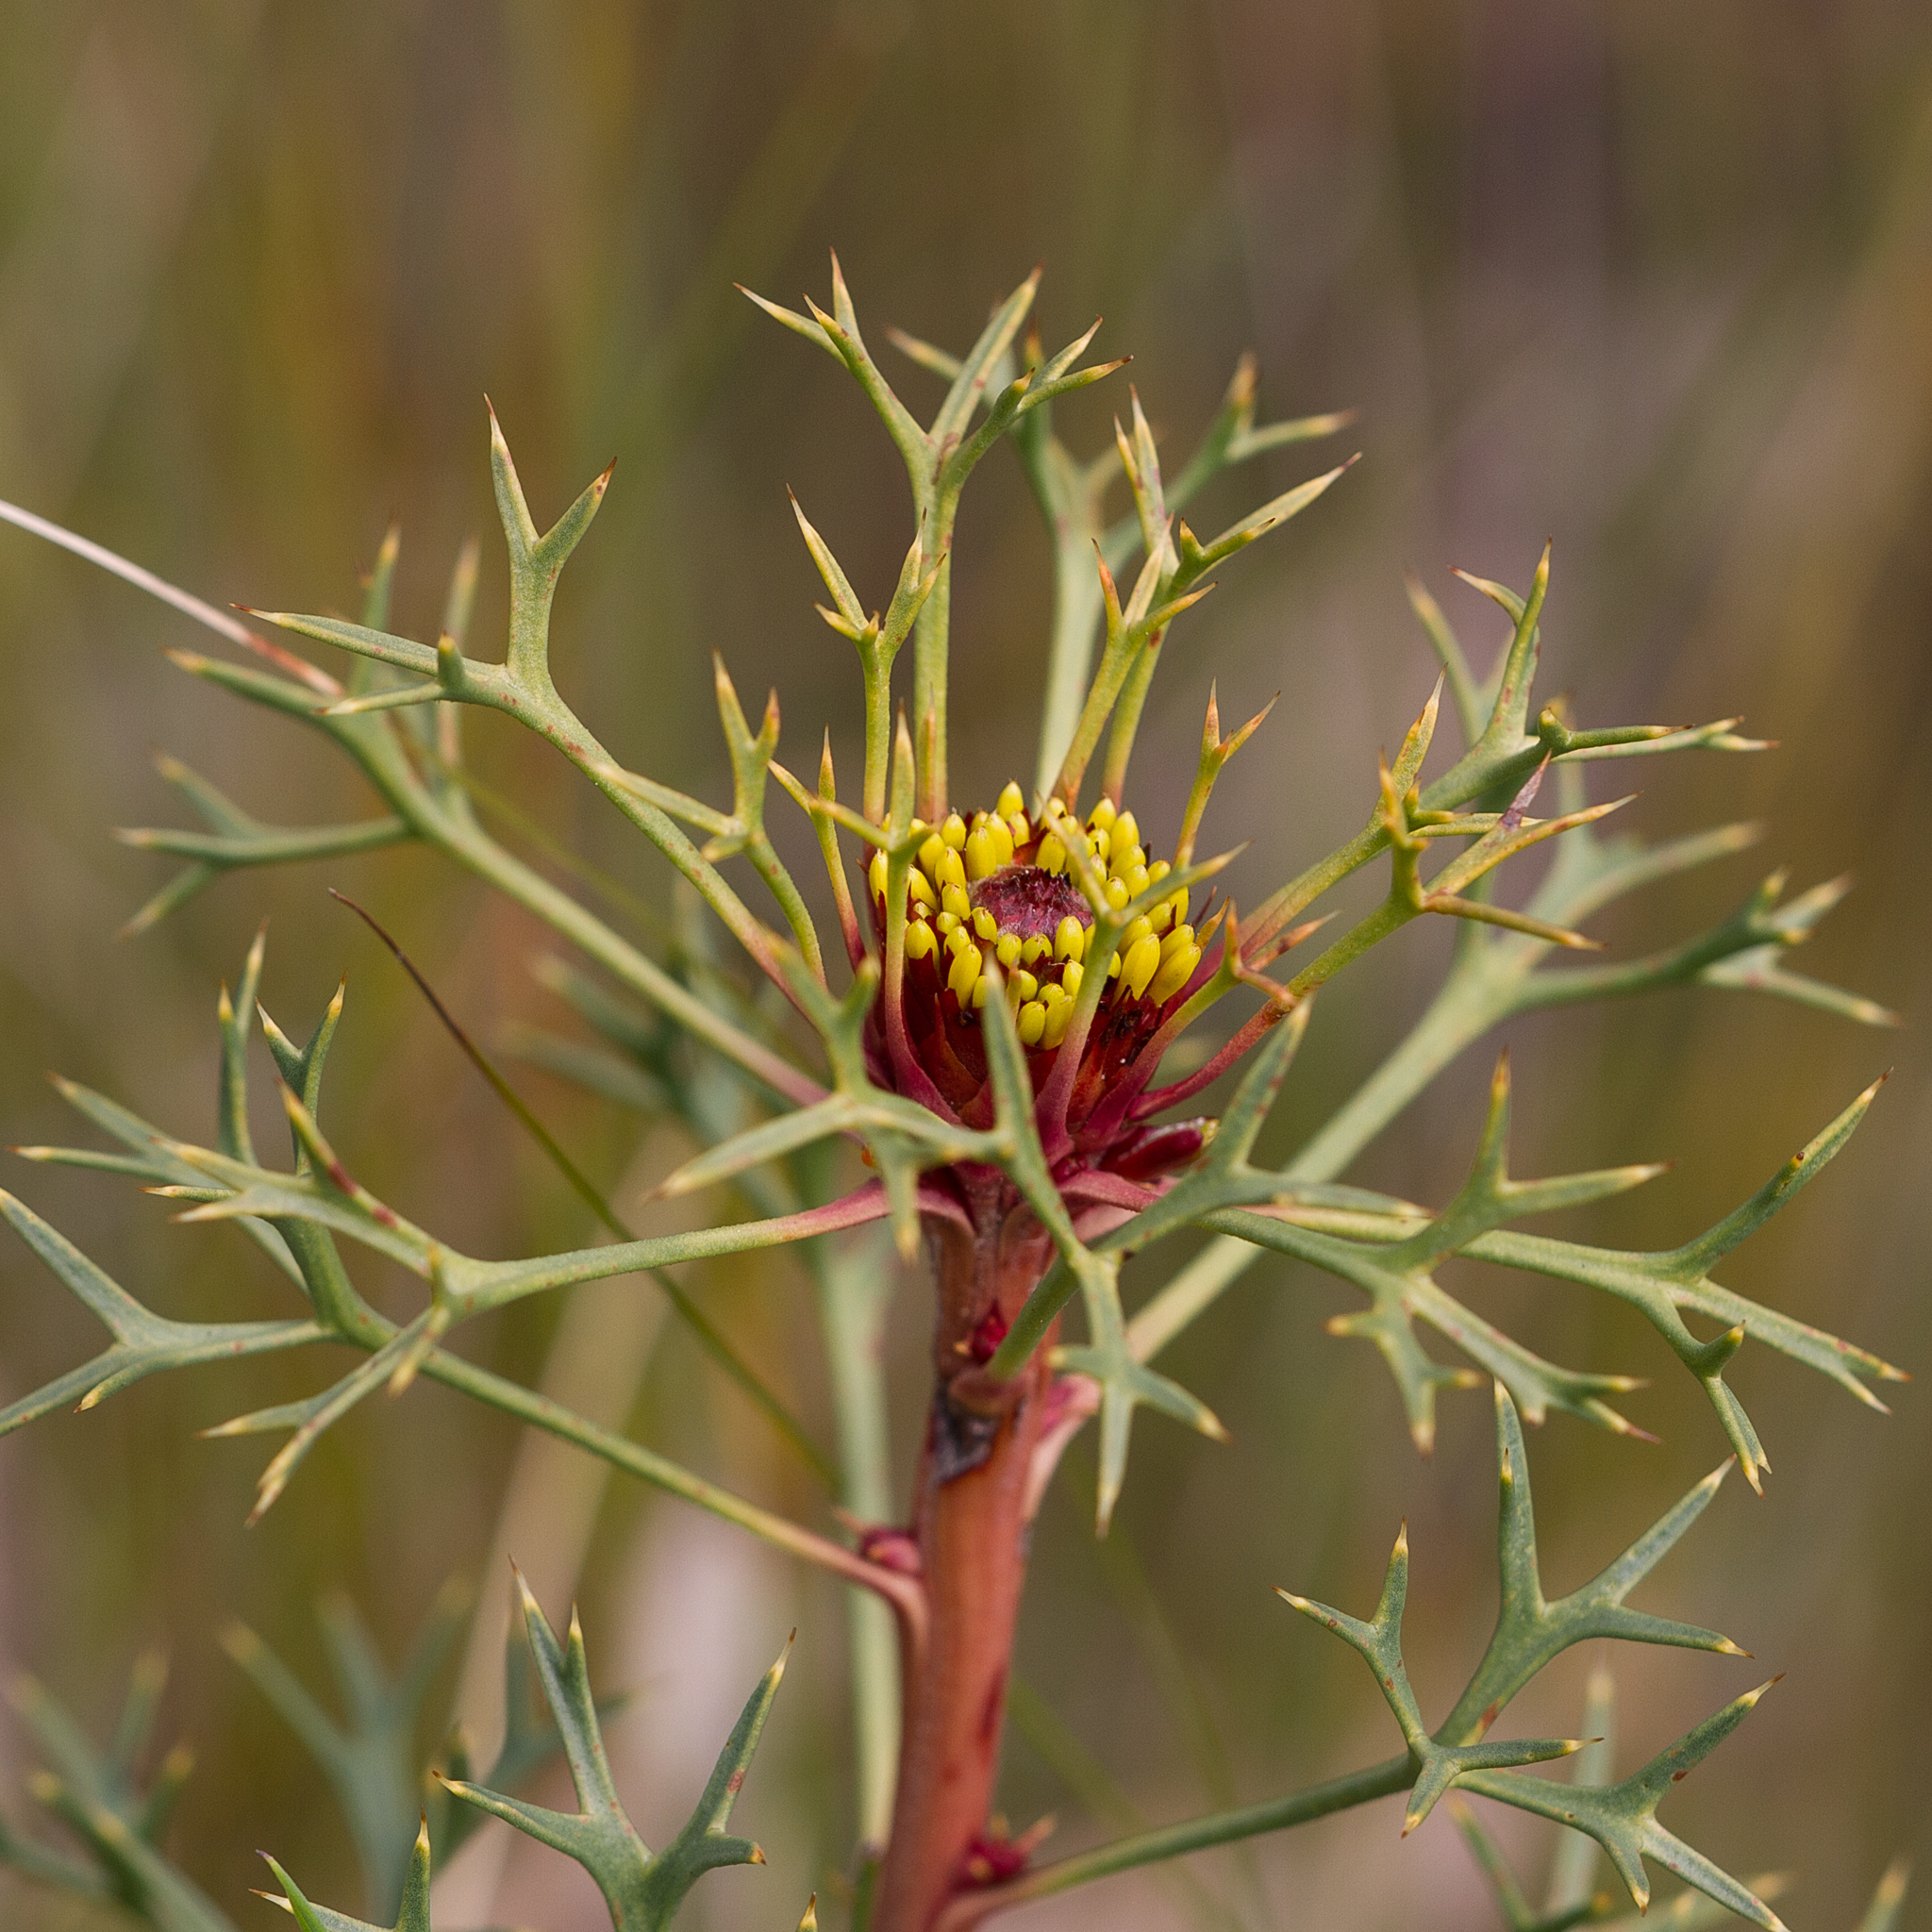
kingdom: Plantae
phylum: Tracheophyta
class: Magnoliopsida
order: Proteales
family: Proteaceae
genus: Isopogon
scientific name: Isopogon ceratophyllus
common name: Horny cone-bush
